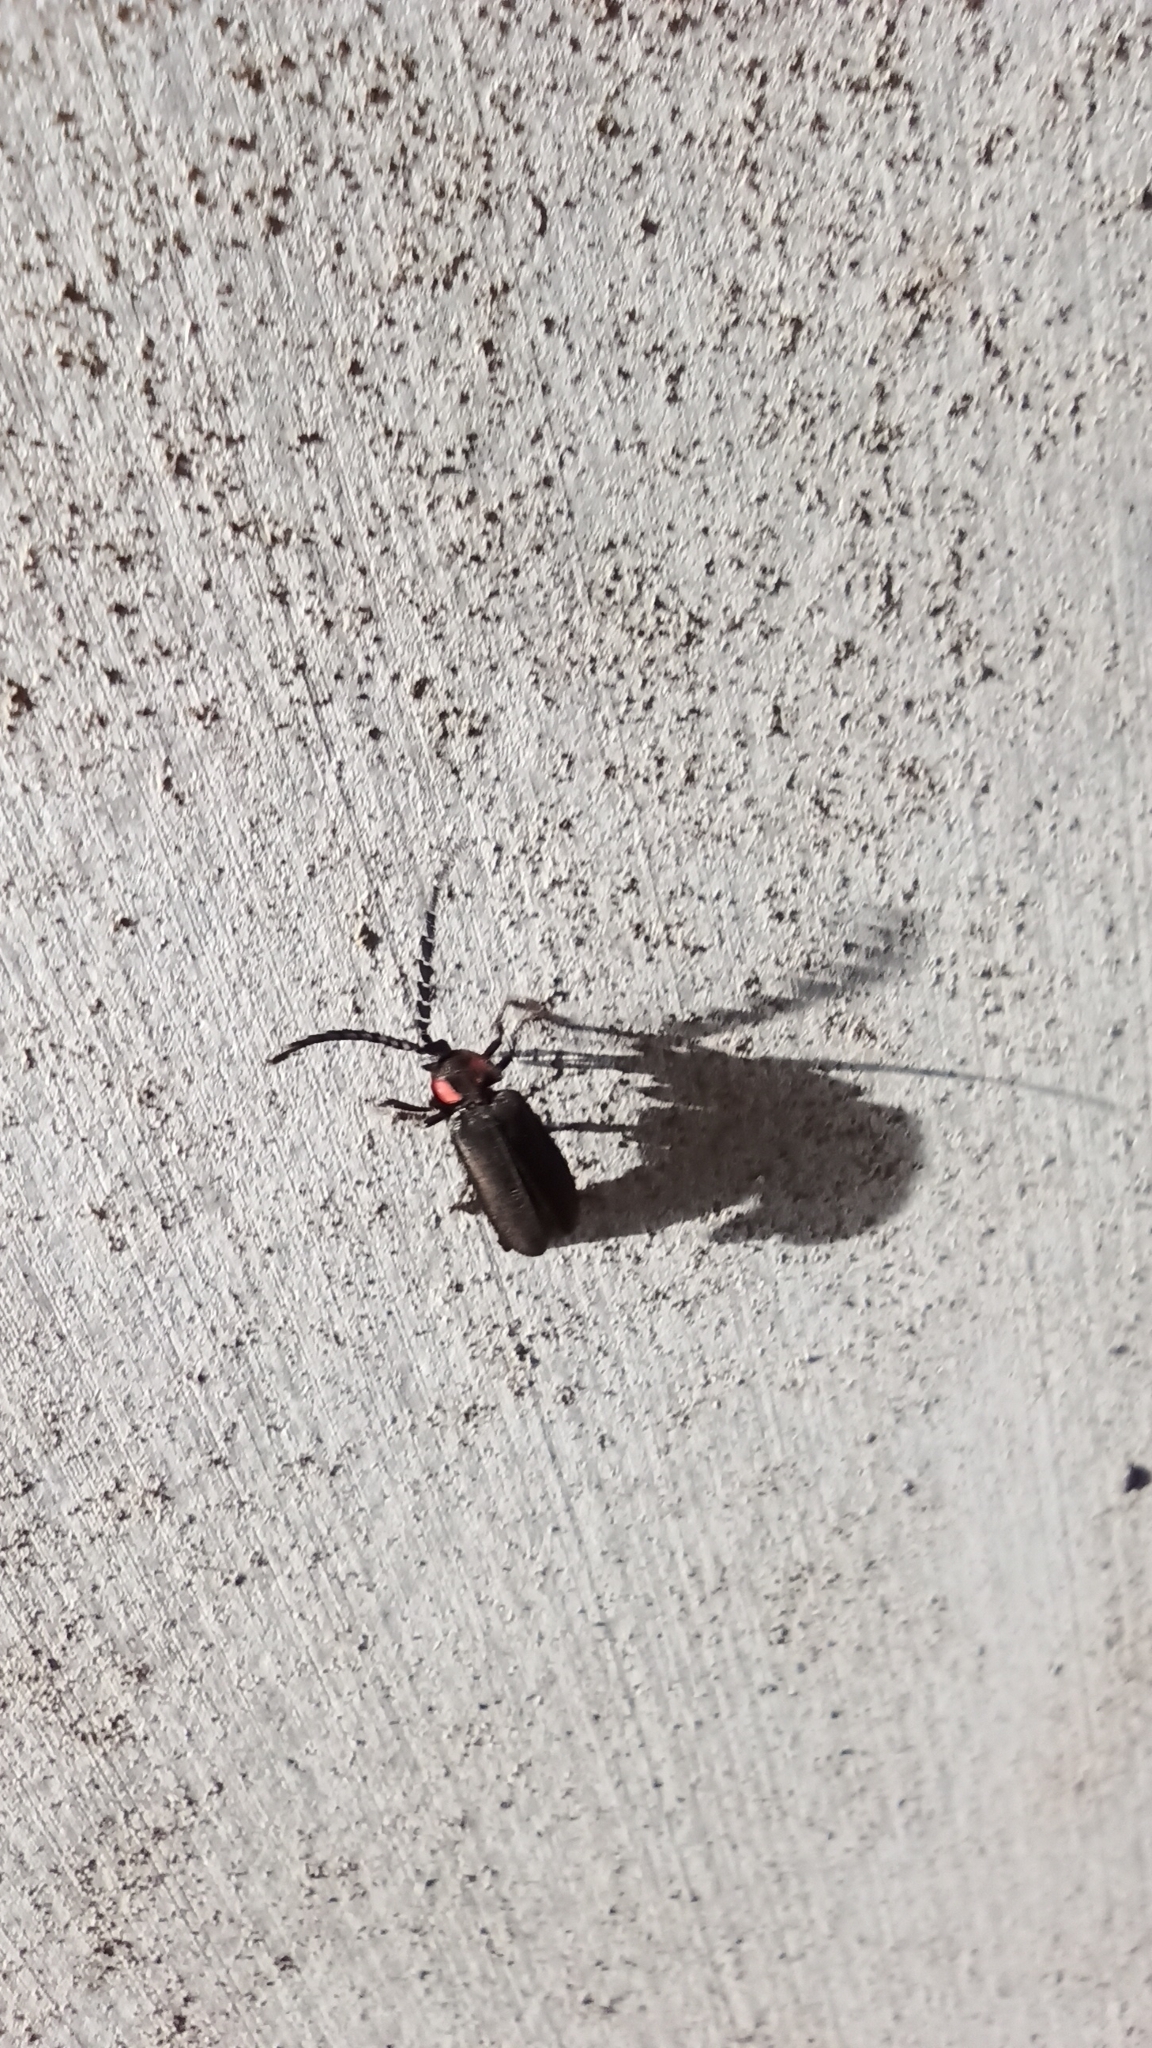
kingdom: Animalia
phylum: Arthropoda
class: Insecta
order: Coleoptera
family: Lampyridae
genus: Lucidina
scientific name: Lucidina biplagiata
